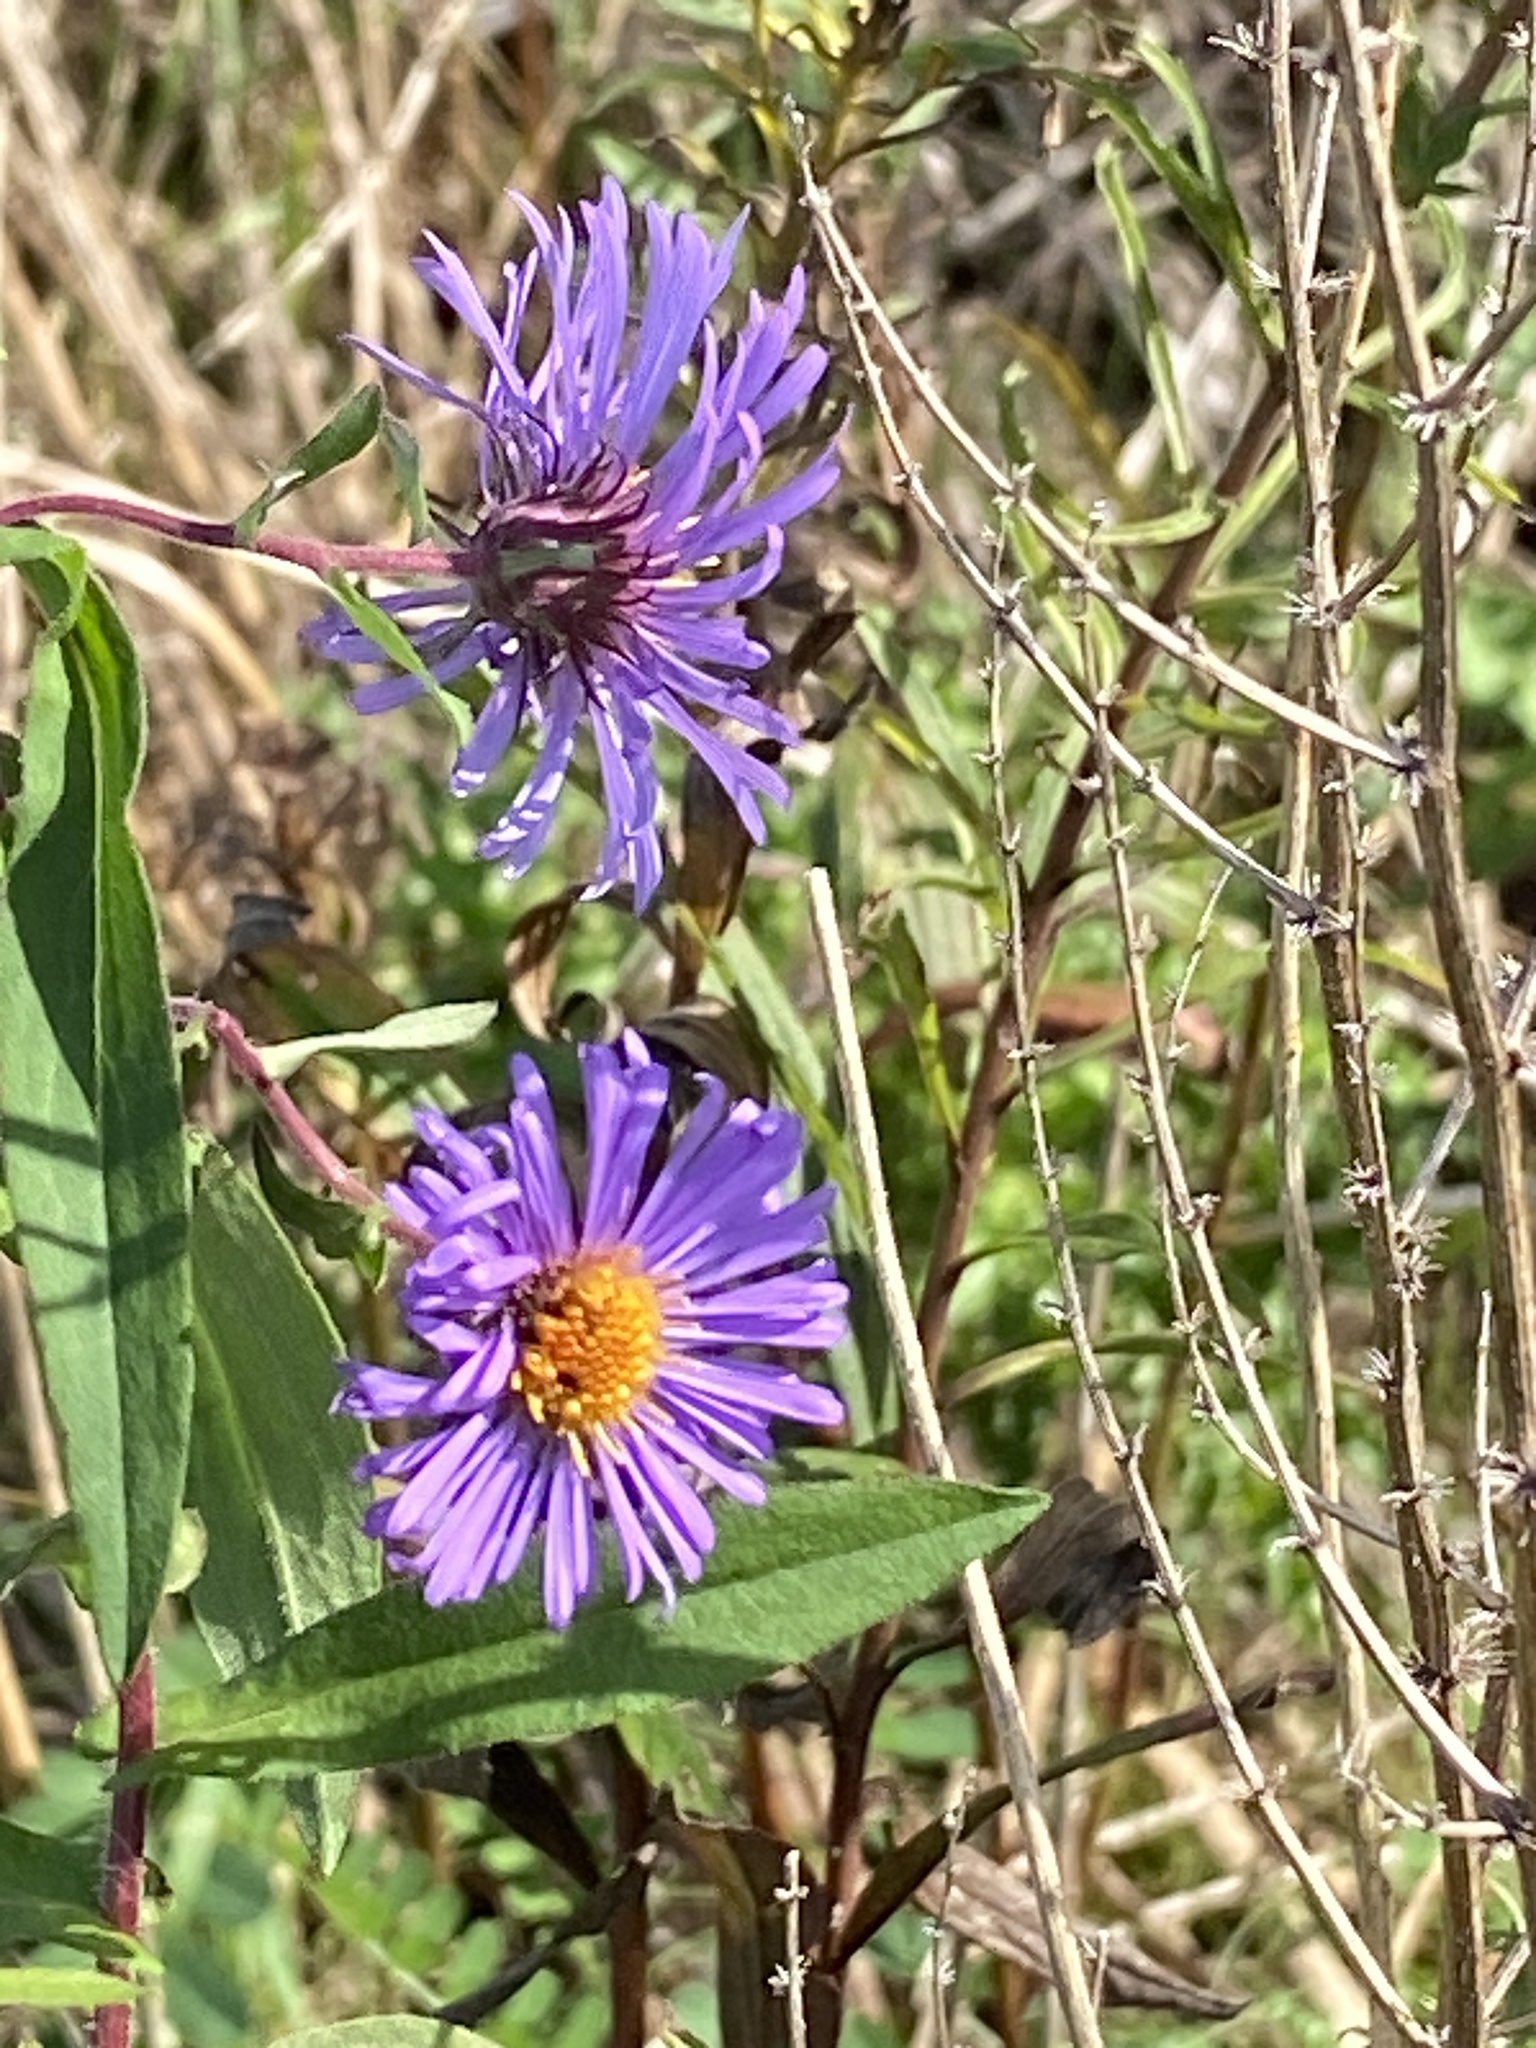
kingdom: Plantae
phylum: Tracheophyta
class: Magnoliopsida
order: Asterales
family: Asteraceae
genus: Symphyotrichum
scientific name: Symphyotrichum novae-angliae
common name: Michaelmas daisy
